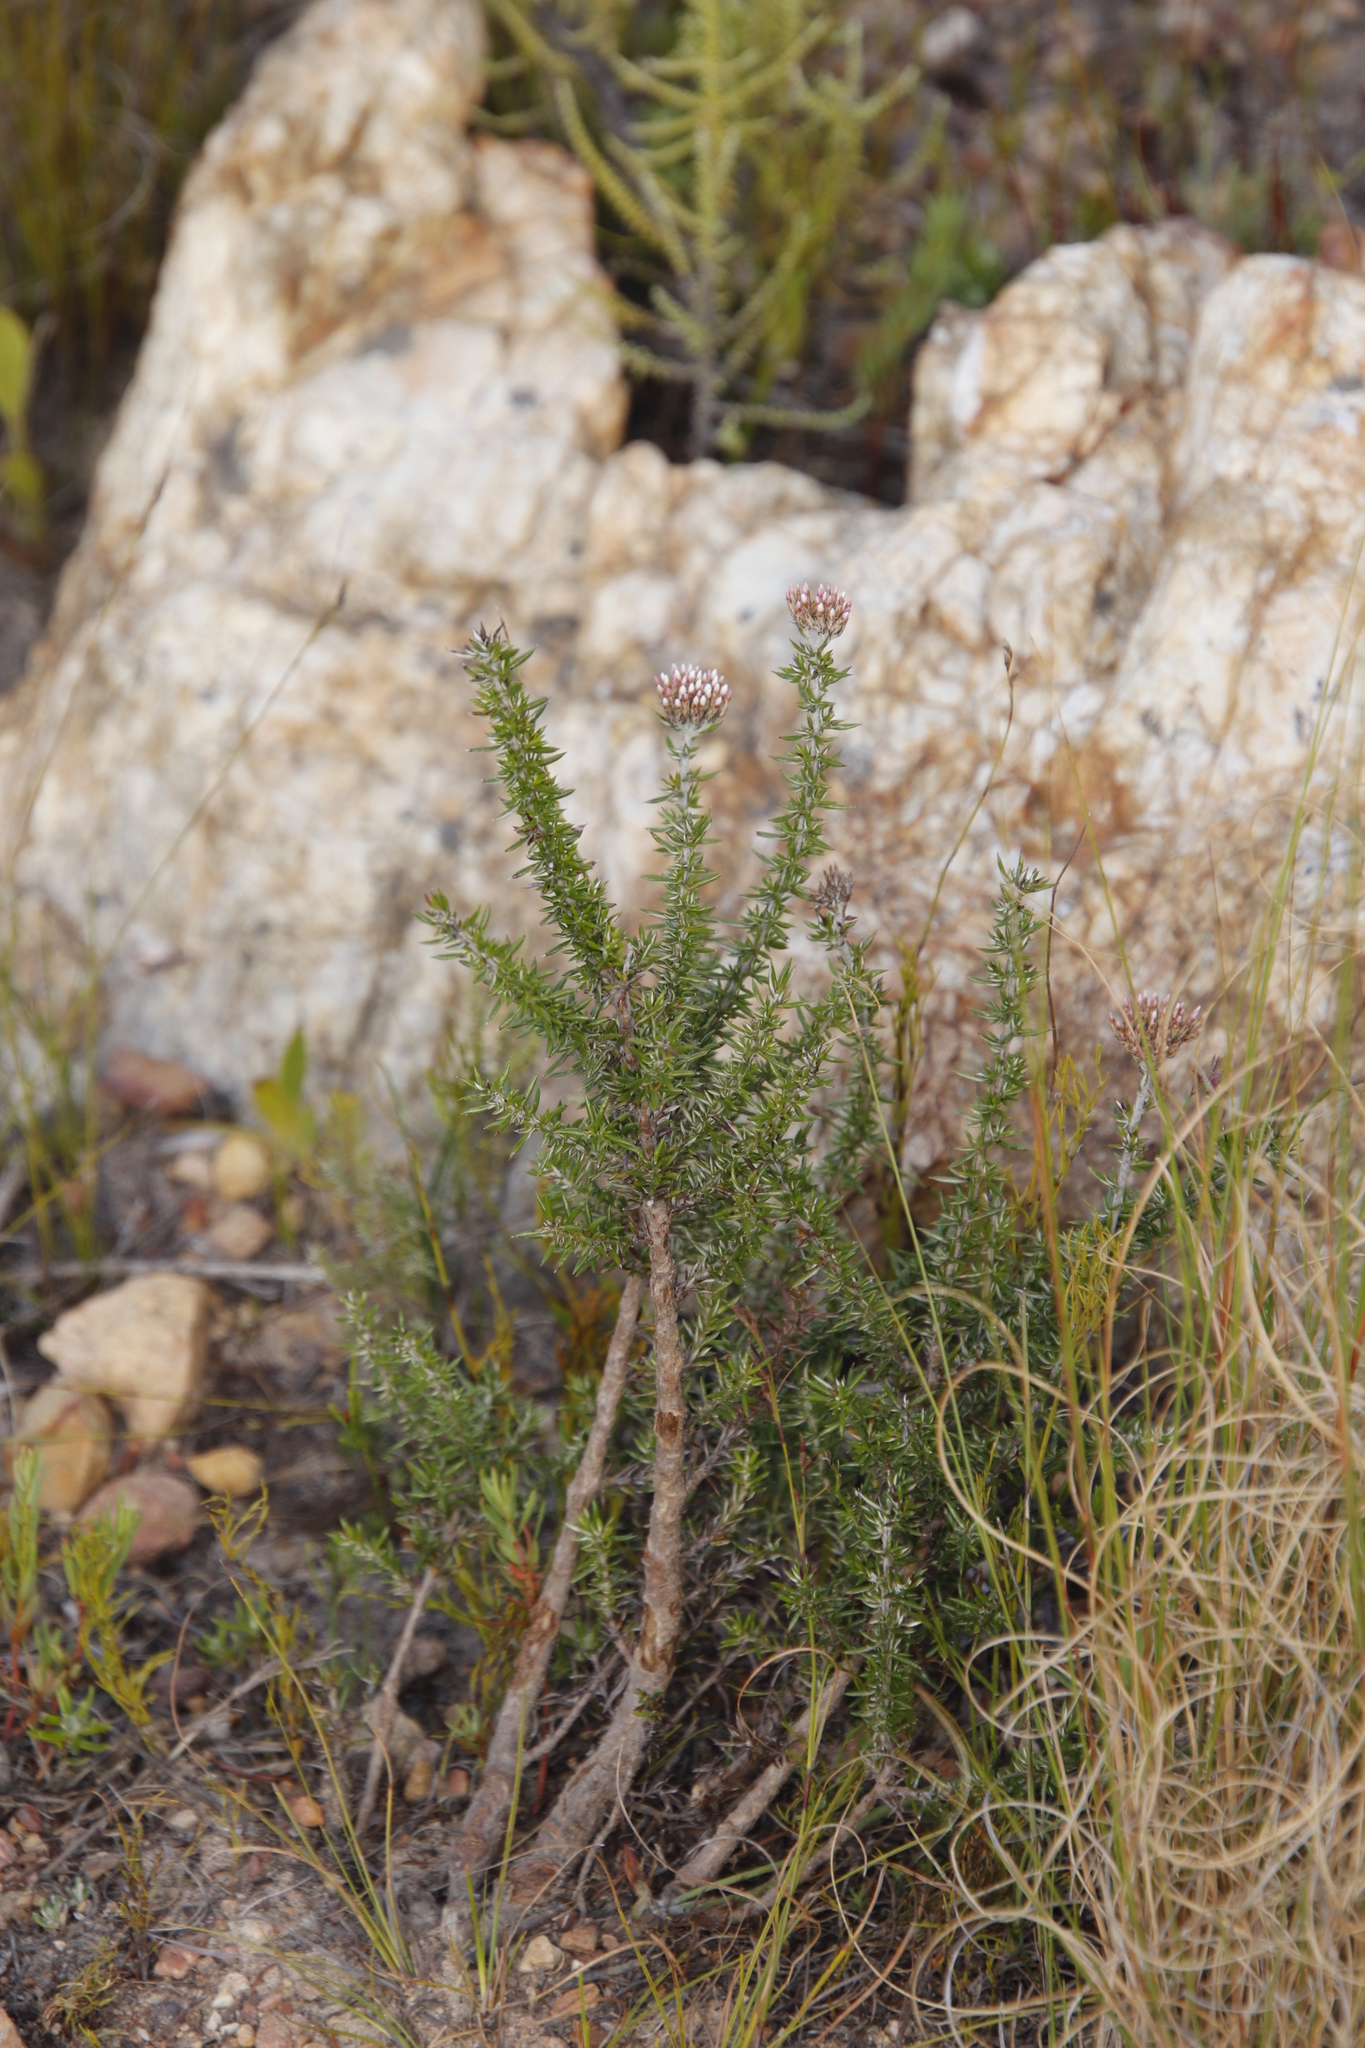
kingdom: Plantae
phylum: Tracheophyta
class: Magnoliopsida
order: Asterales
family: Asteraceae
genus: Metalasia
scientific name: Metalasia densa
